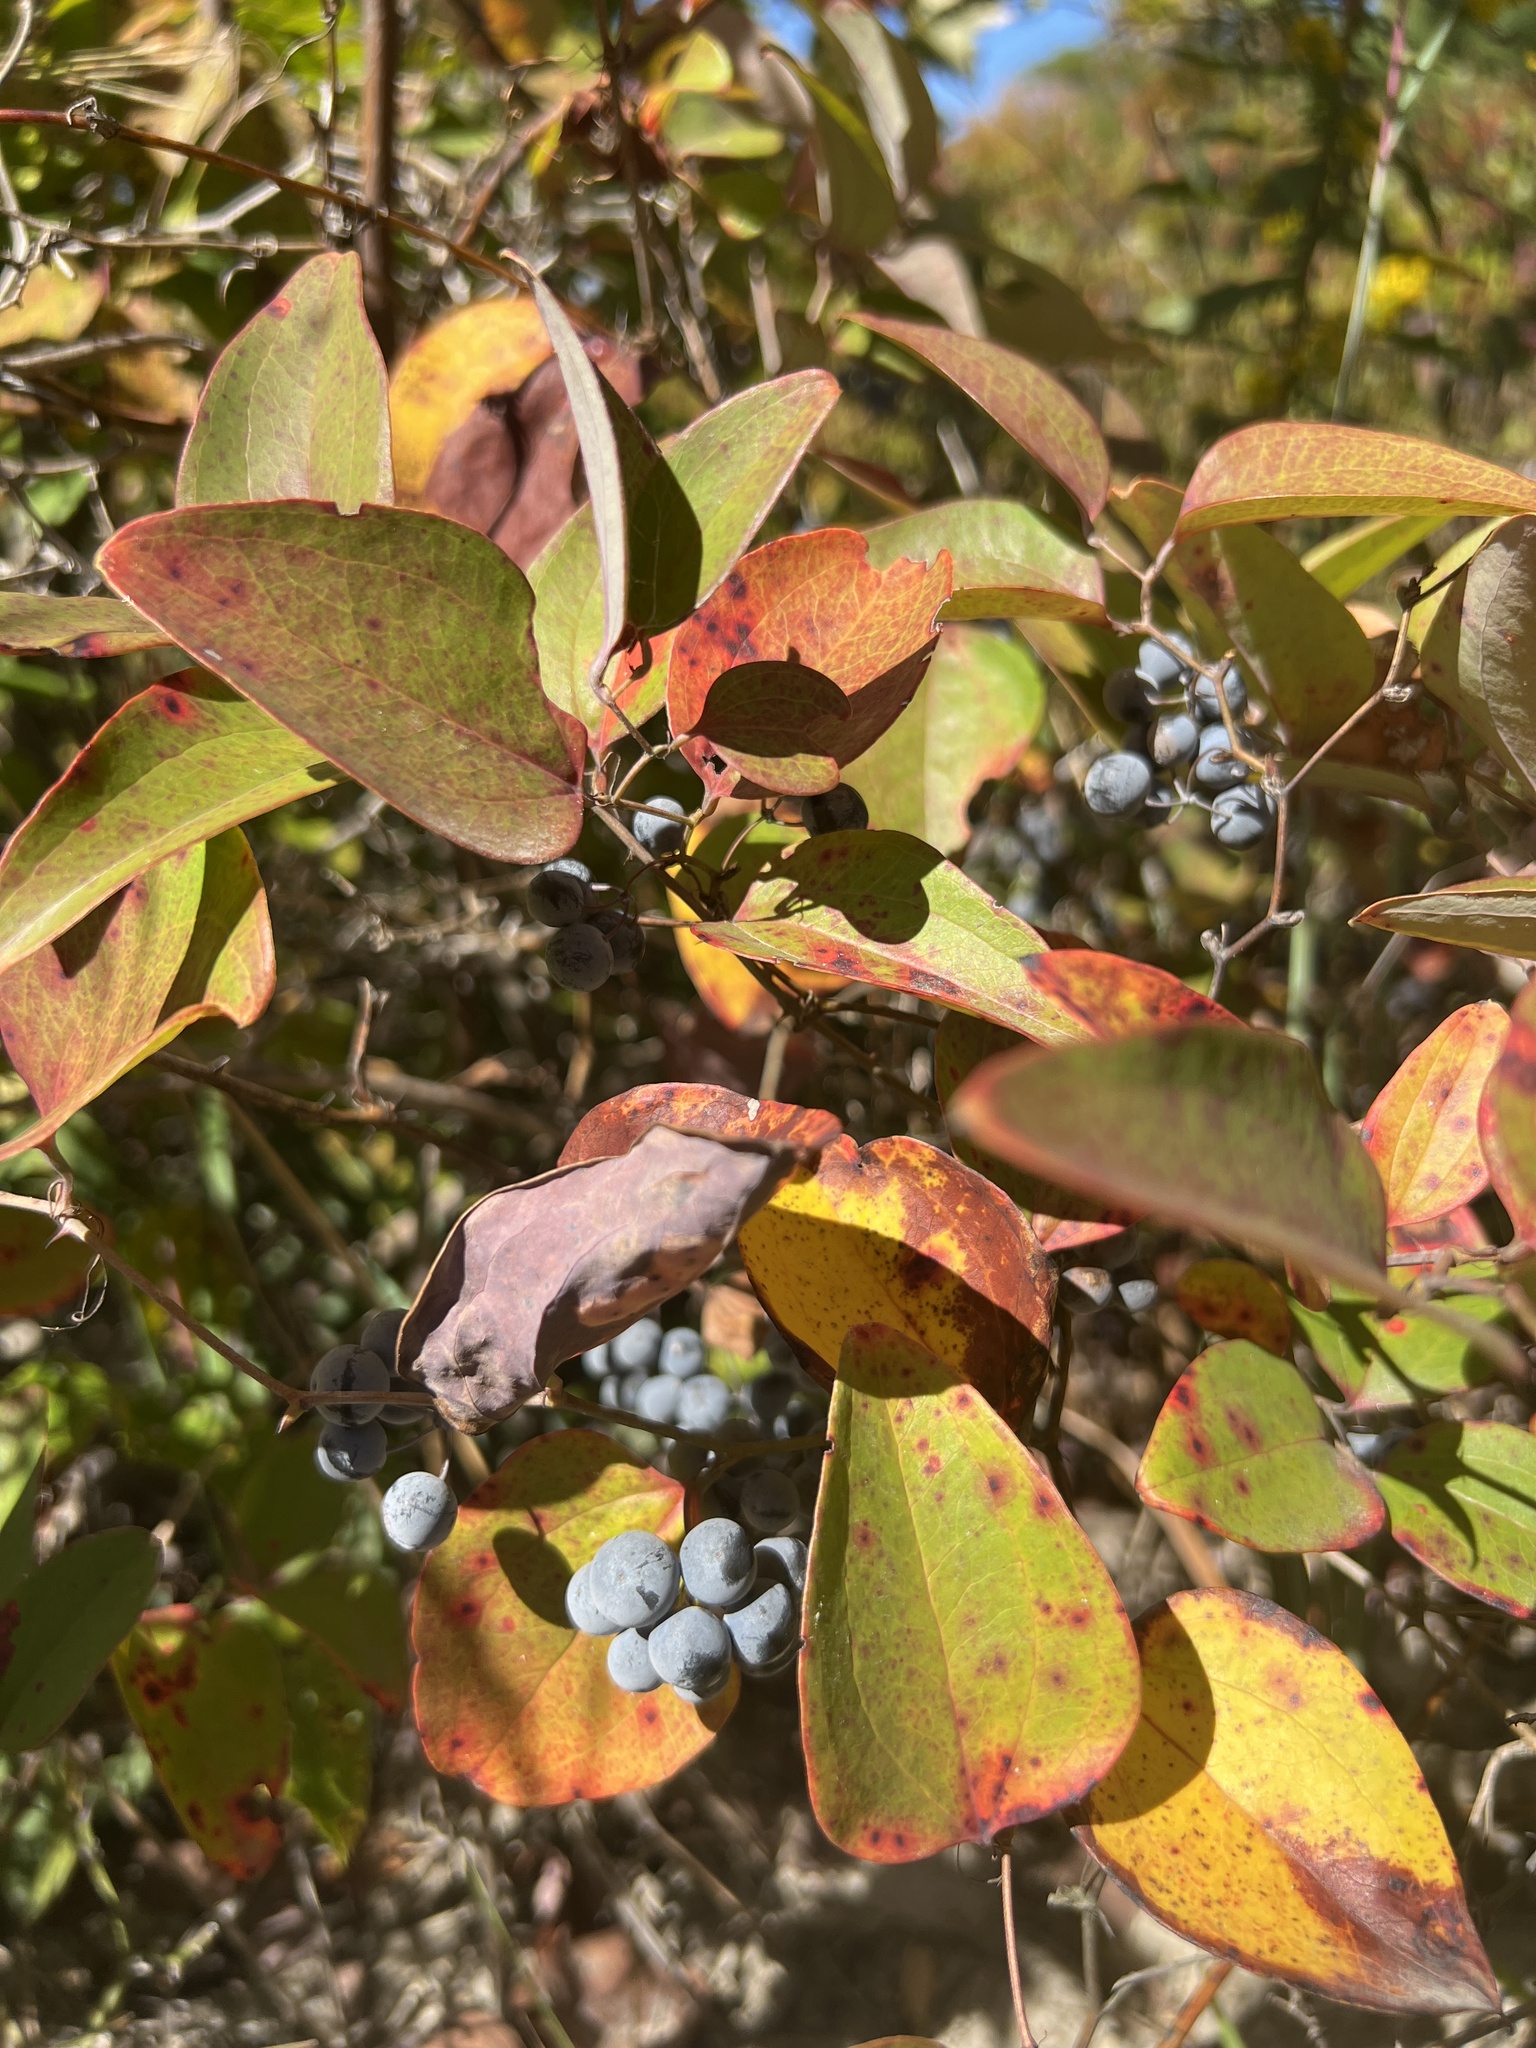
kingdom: Plantae
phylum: Tracheophyta
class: Liliopsida
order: Liliales
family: Smilacaceae
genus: Smilax
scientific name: Smilax glauca
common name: Cat greenbrier
